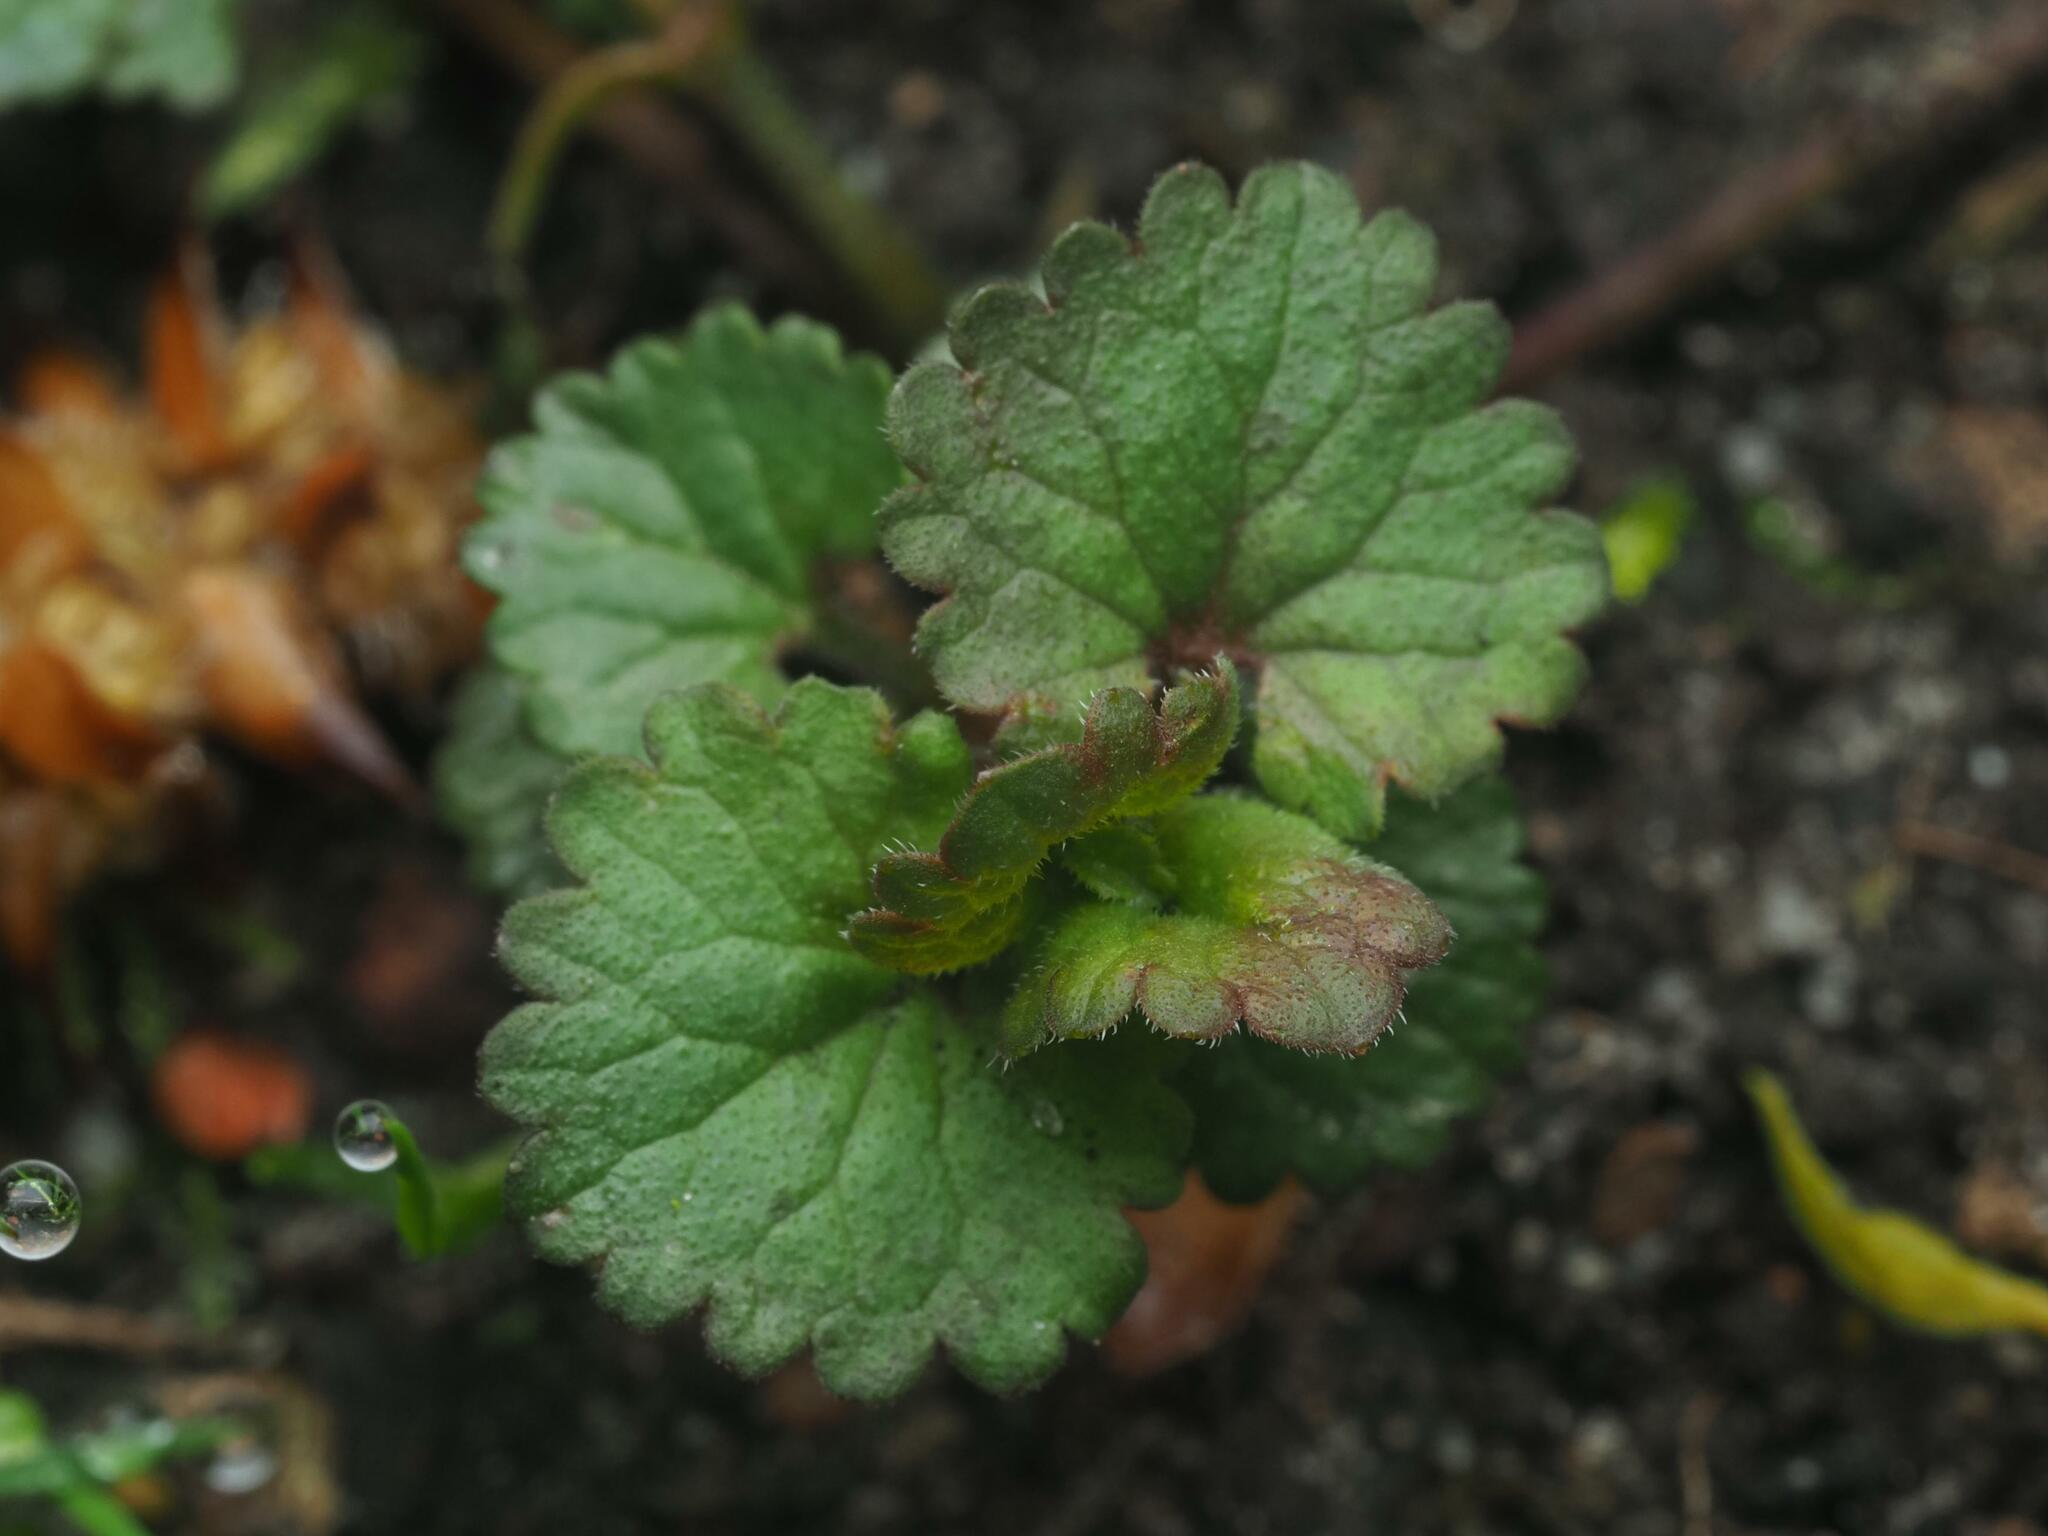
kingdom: Plantae
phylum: Tracheophyta
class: Magnoliopsida
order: Lamiales
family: Lamiaceae
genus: Glechoma
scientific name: Glechoma hederacea
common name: Ground ivy
